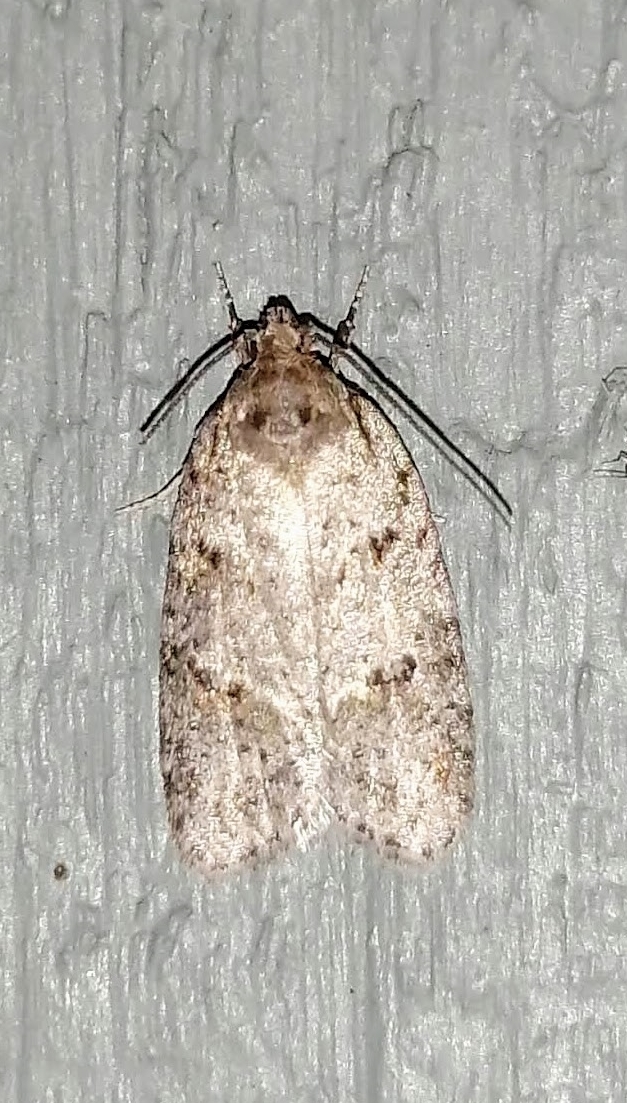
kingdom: Animalia
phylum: Arthropoda
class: Insecta
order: Lepidoptera
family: Depressariidae
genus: Bibarrambla
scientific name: Bibarrambla allenella
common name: Bog bibarrambla moth
